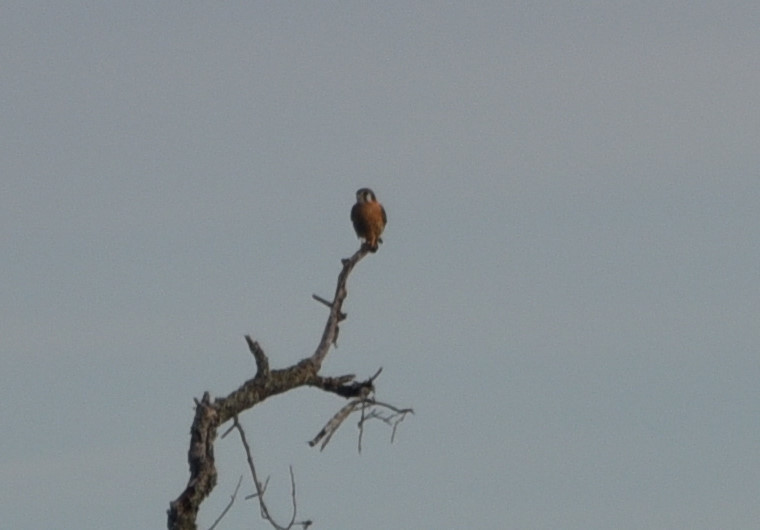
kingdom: Animalia
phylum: Chordata
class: Aves
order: Falconiformes
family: Falconidae
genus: Falco
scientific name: Falco sparverius
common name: American kestrel
